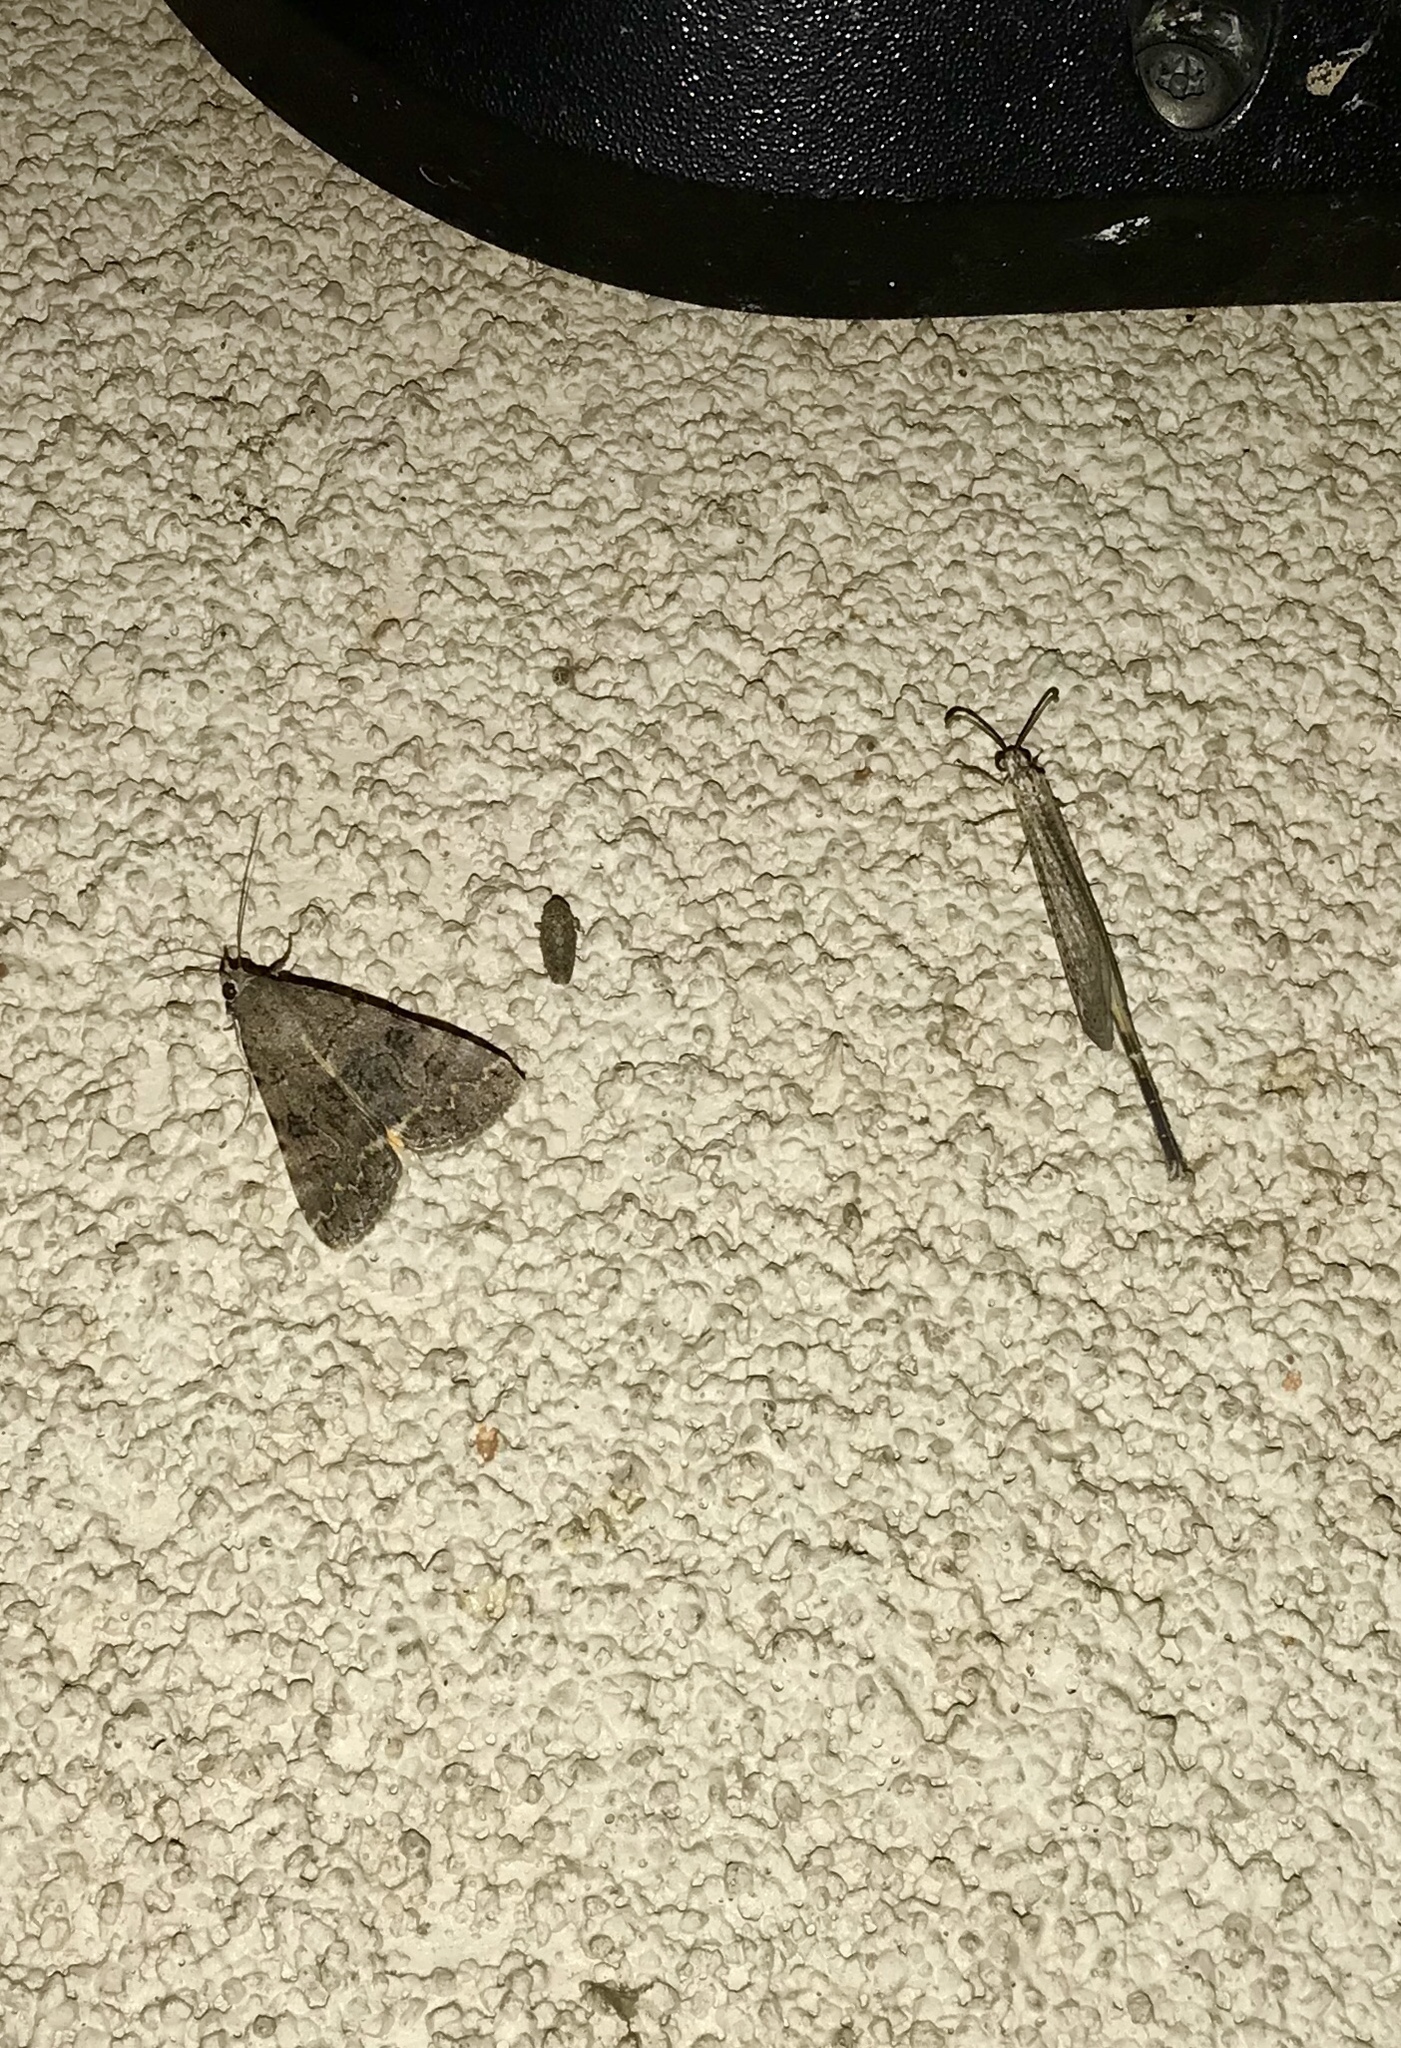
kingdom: Animalia
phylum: Arthropoda
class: Insecta
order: Lepidoptera
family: Erebidae
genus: Bulia
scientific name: Bulia deducta
